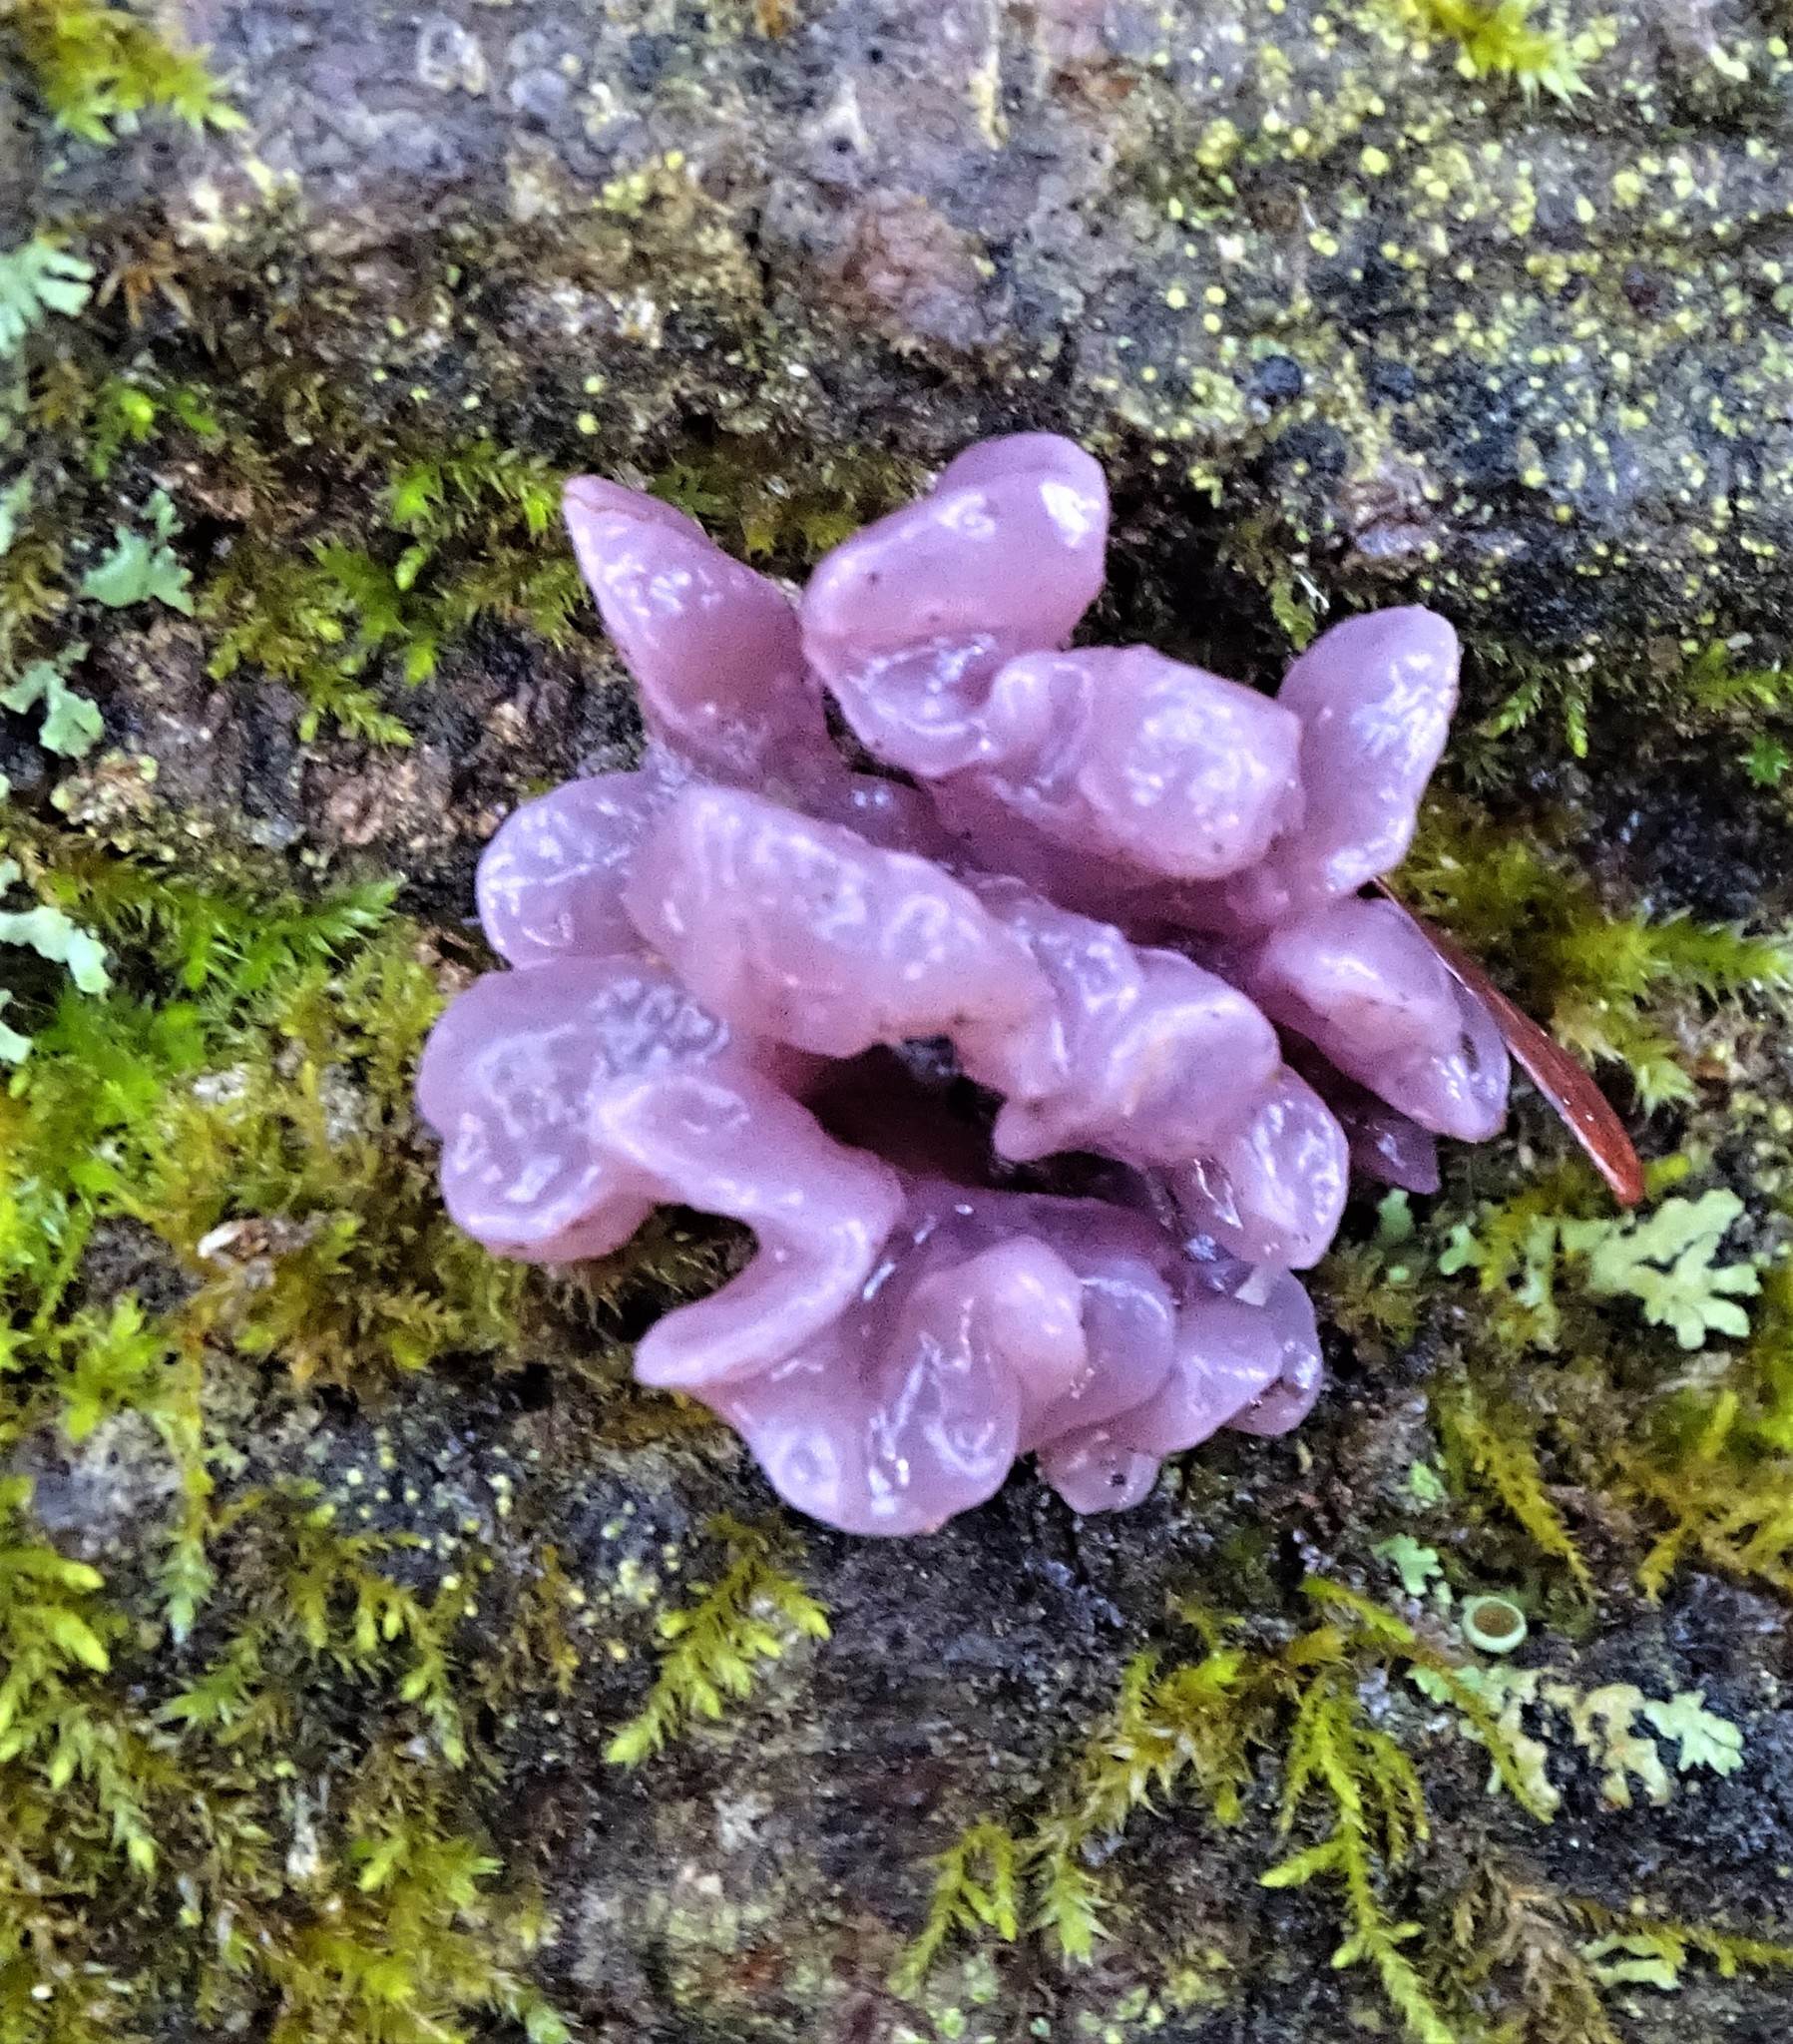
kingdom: Fungi
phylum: Ascomycota
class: Leotiomycetes
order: Helotiales
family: Gelatinodiscaceae
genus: Ascocoryne
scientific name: Ascocoryne sarcoides
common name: Purple jellydisc
